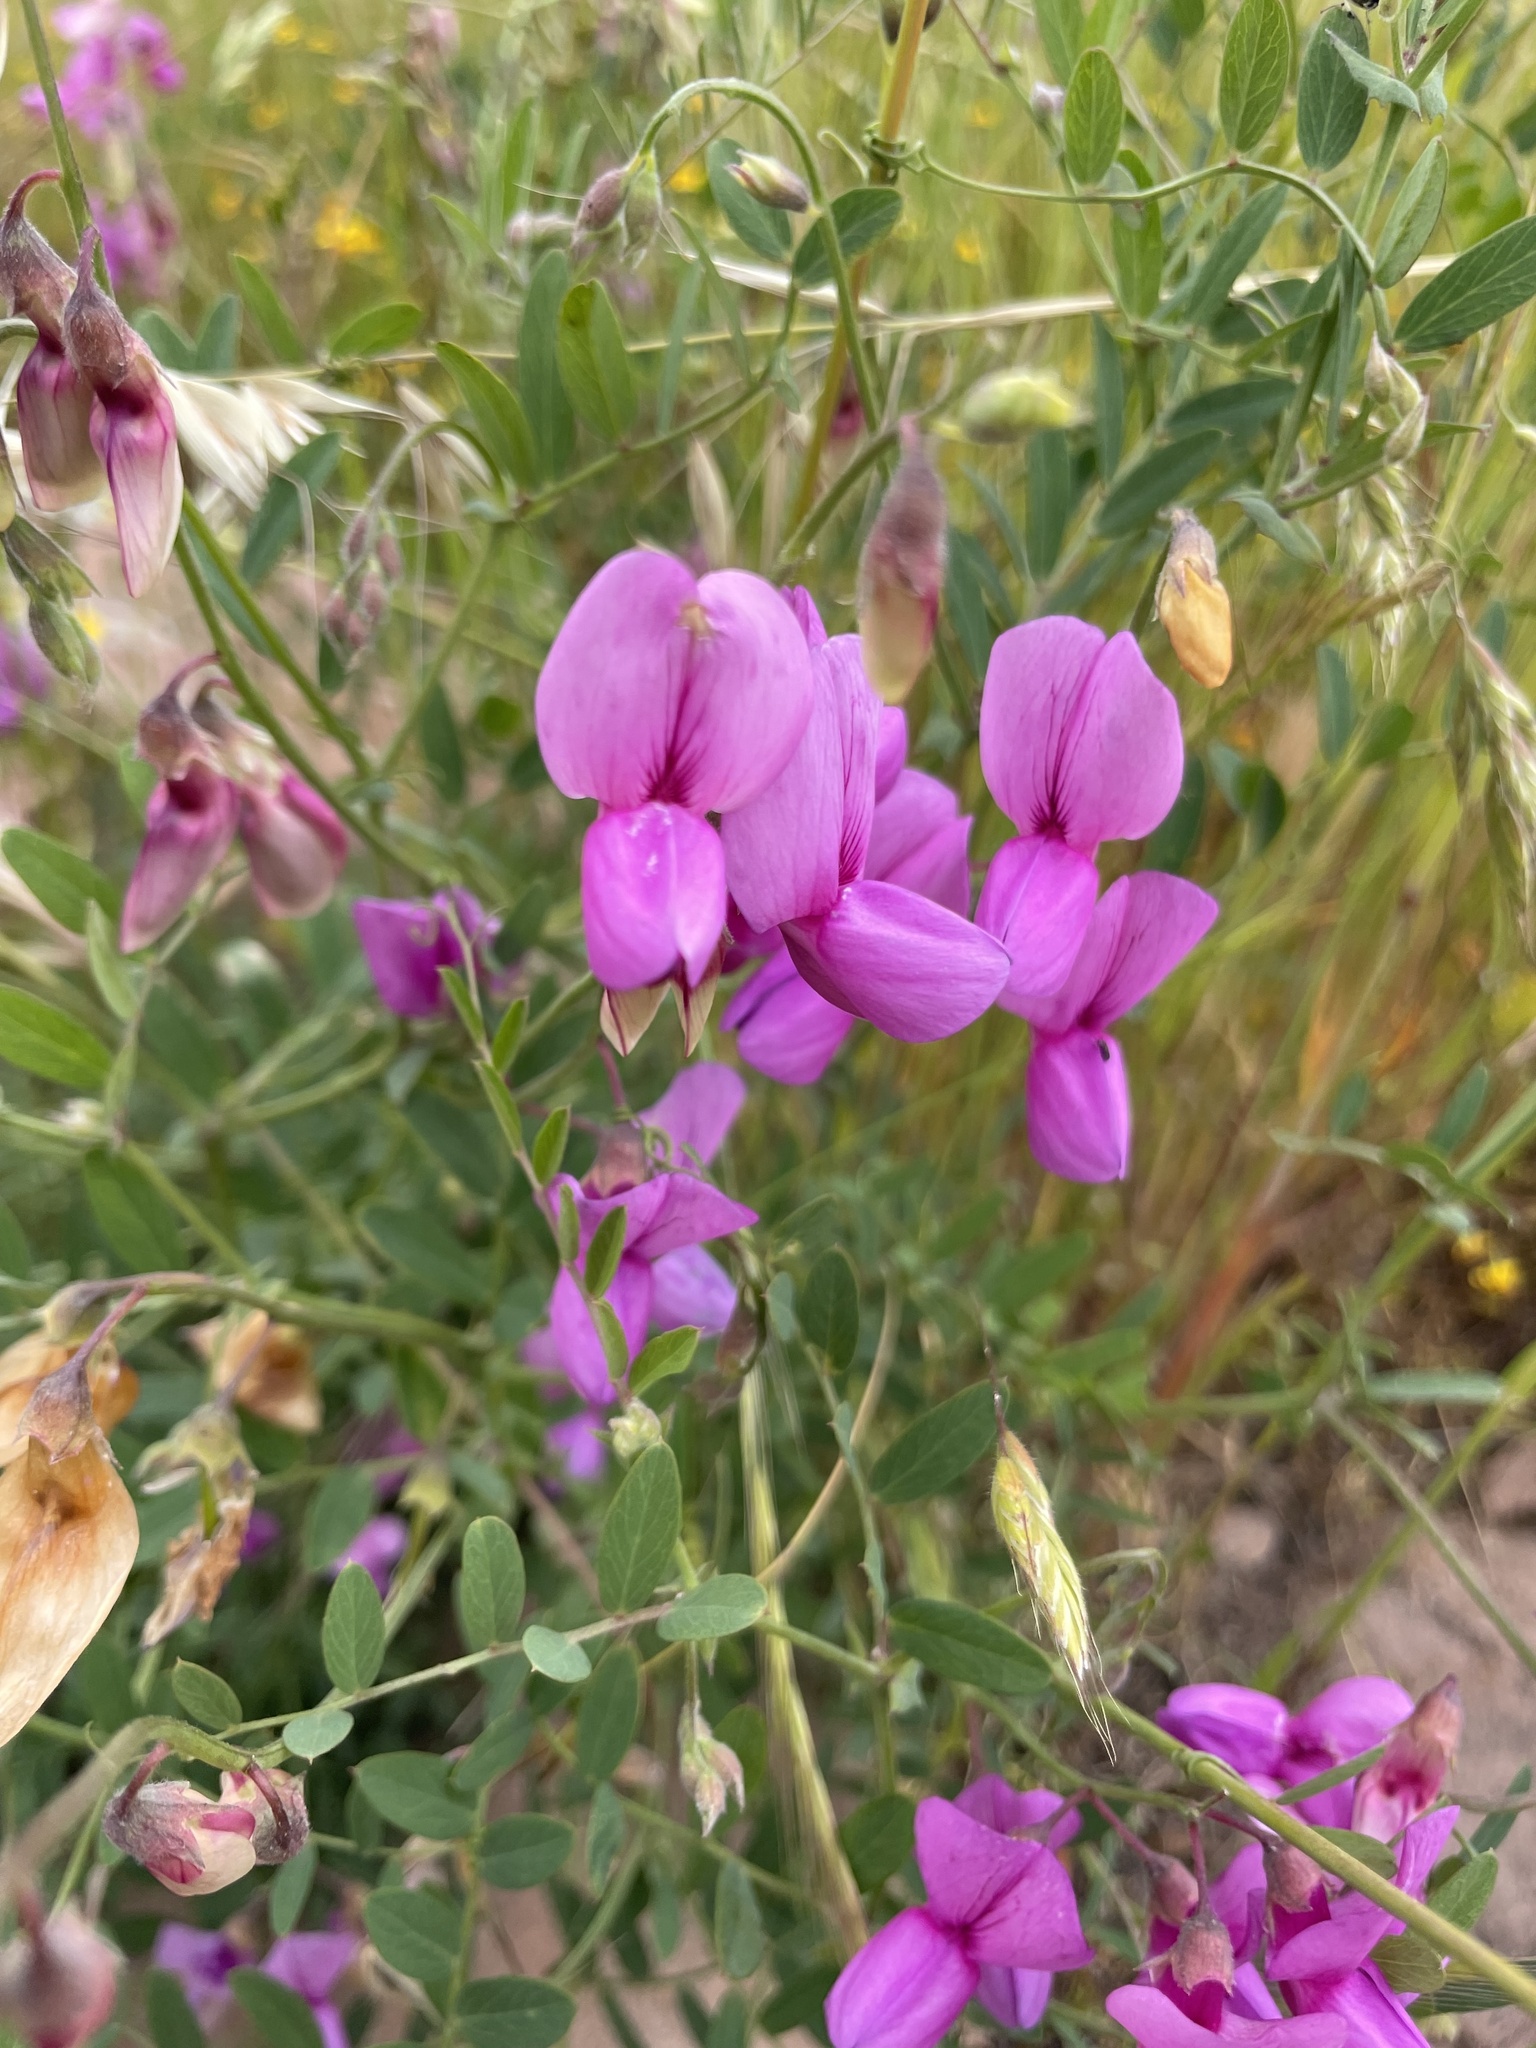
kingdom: Plantae
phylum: Tracheophyta
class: Magnoliopsida
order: Fabales
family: Fabaceae
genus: Lathyrus
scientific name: Lathyrus vestitus
